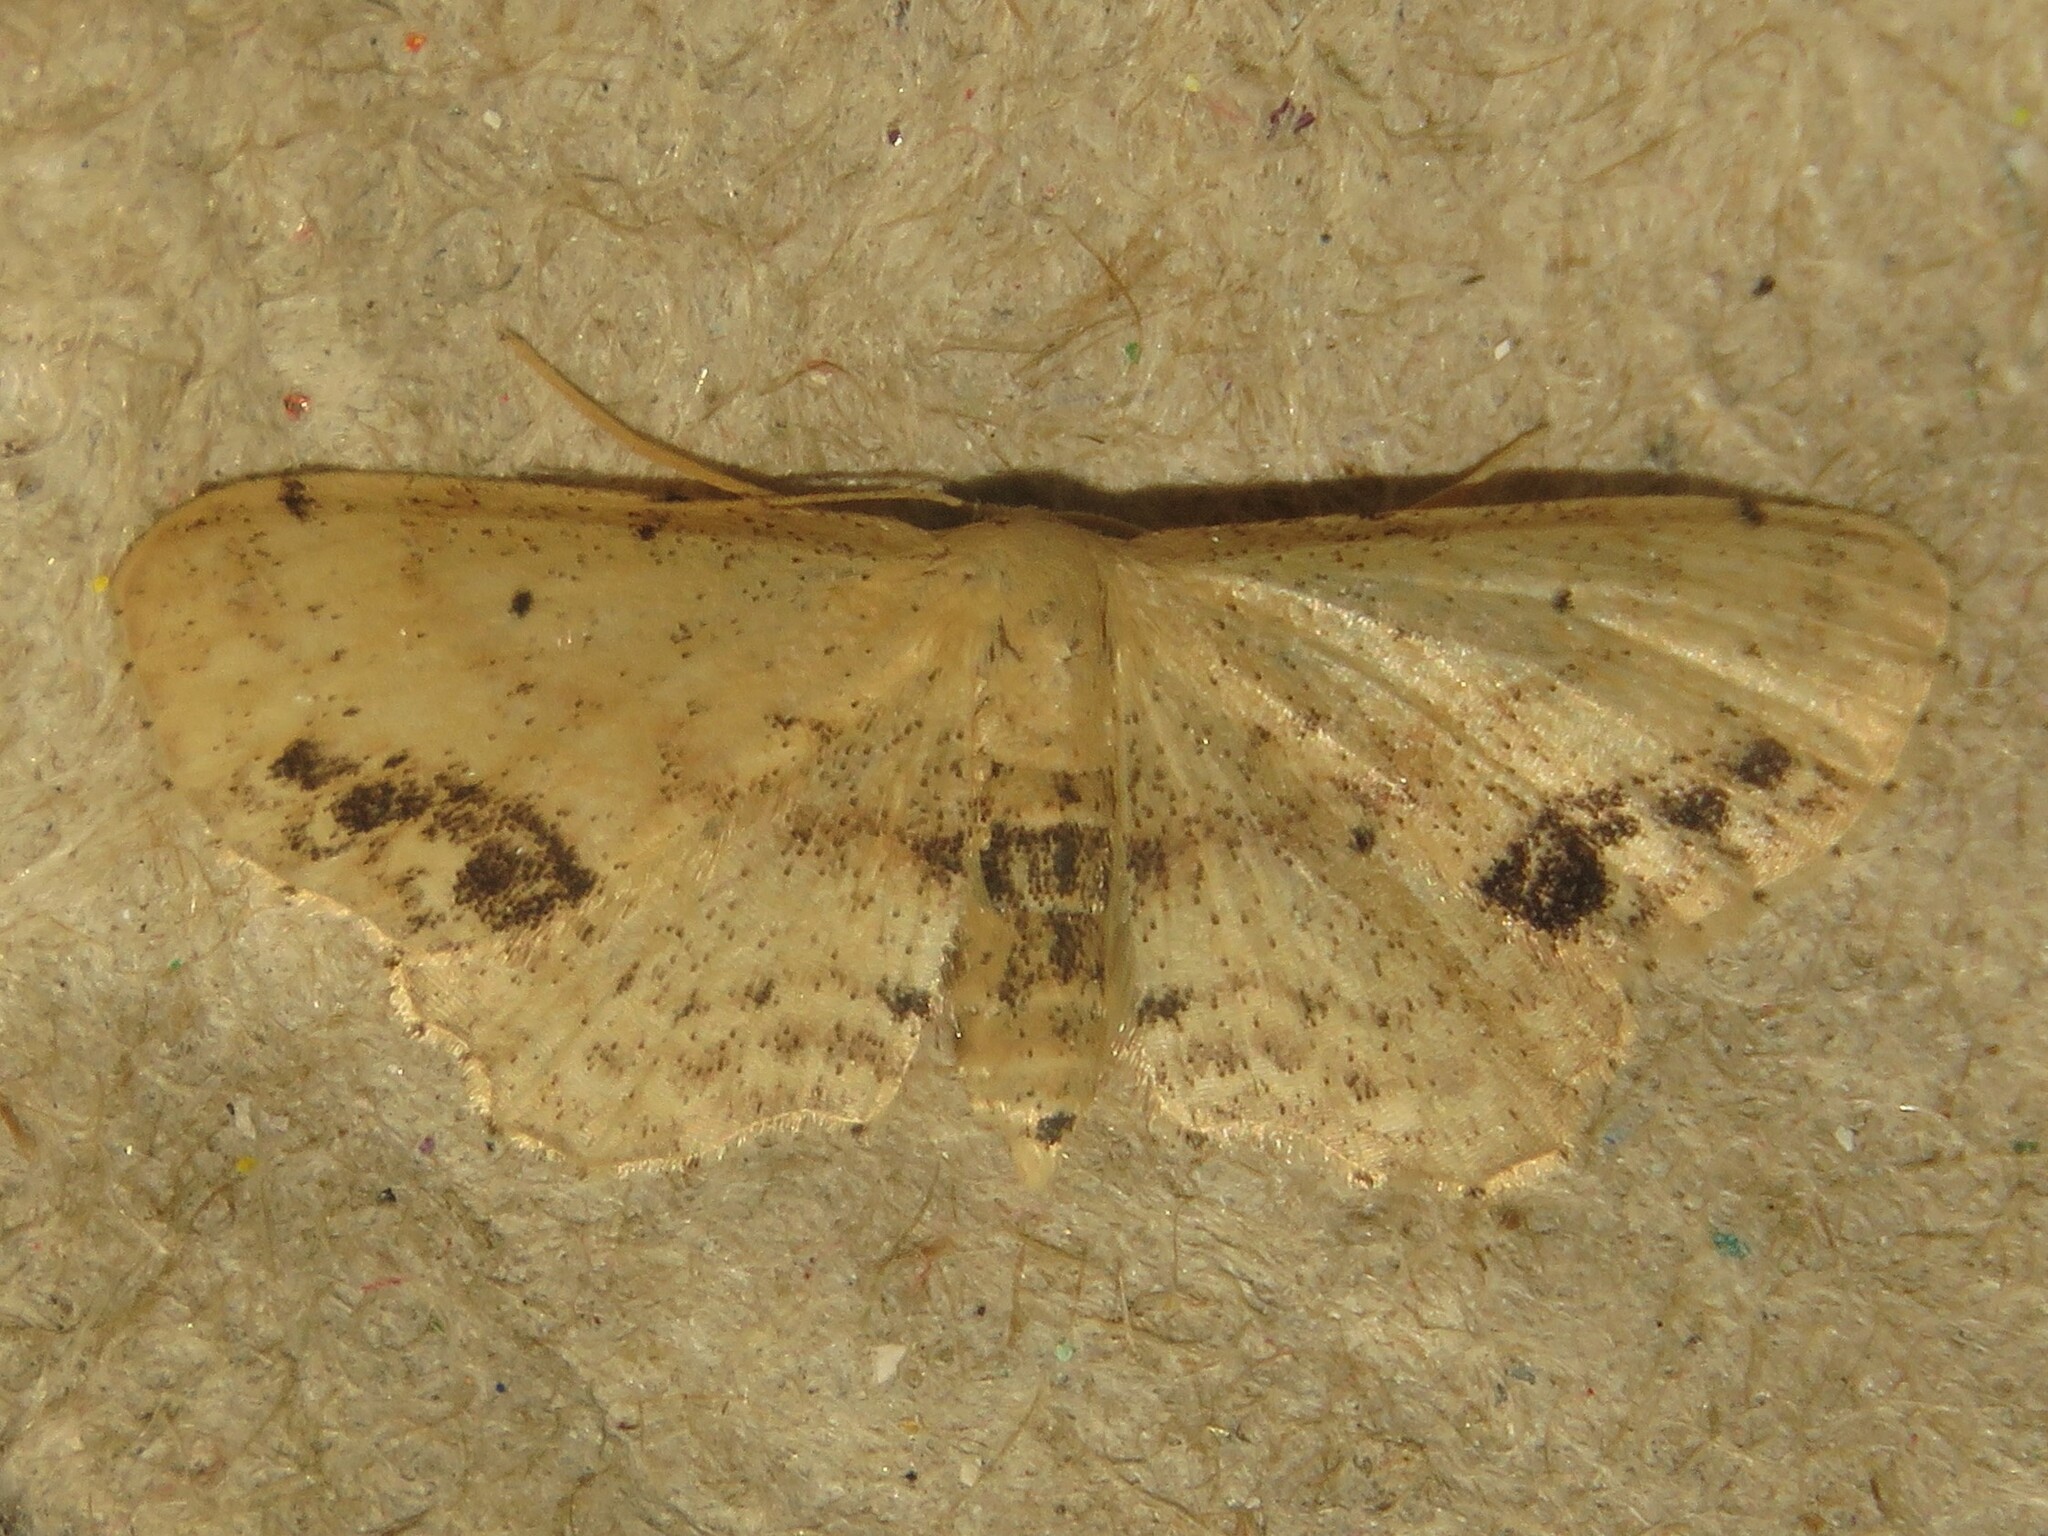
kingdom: Animalia
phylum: Arthropoda
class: Insecta
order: Lepidoptera
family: Geometridae
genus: Idaea
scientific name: Idaea dimidiata
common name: Single-dotted wave
